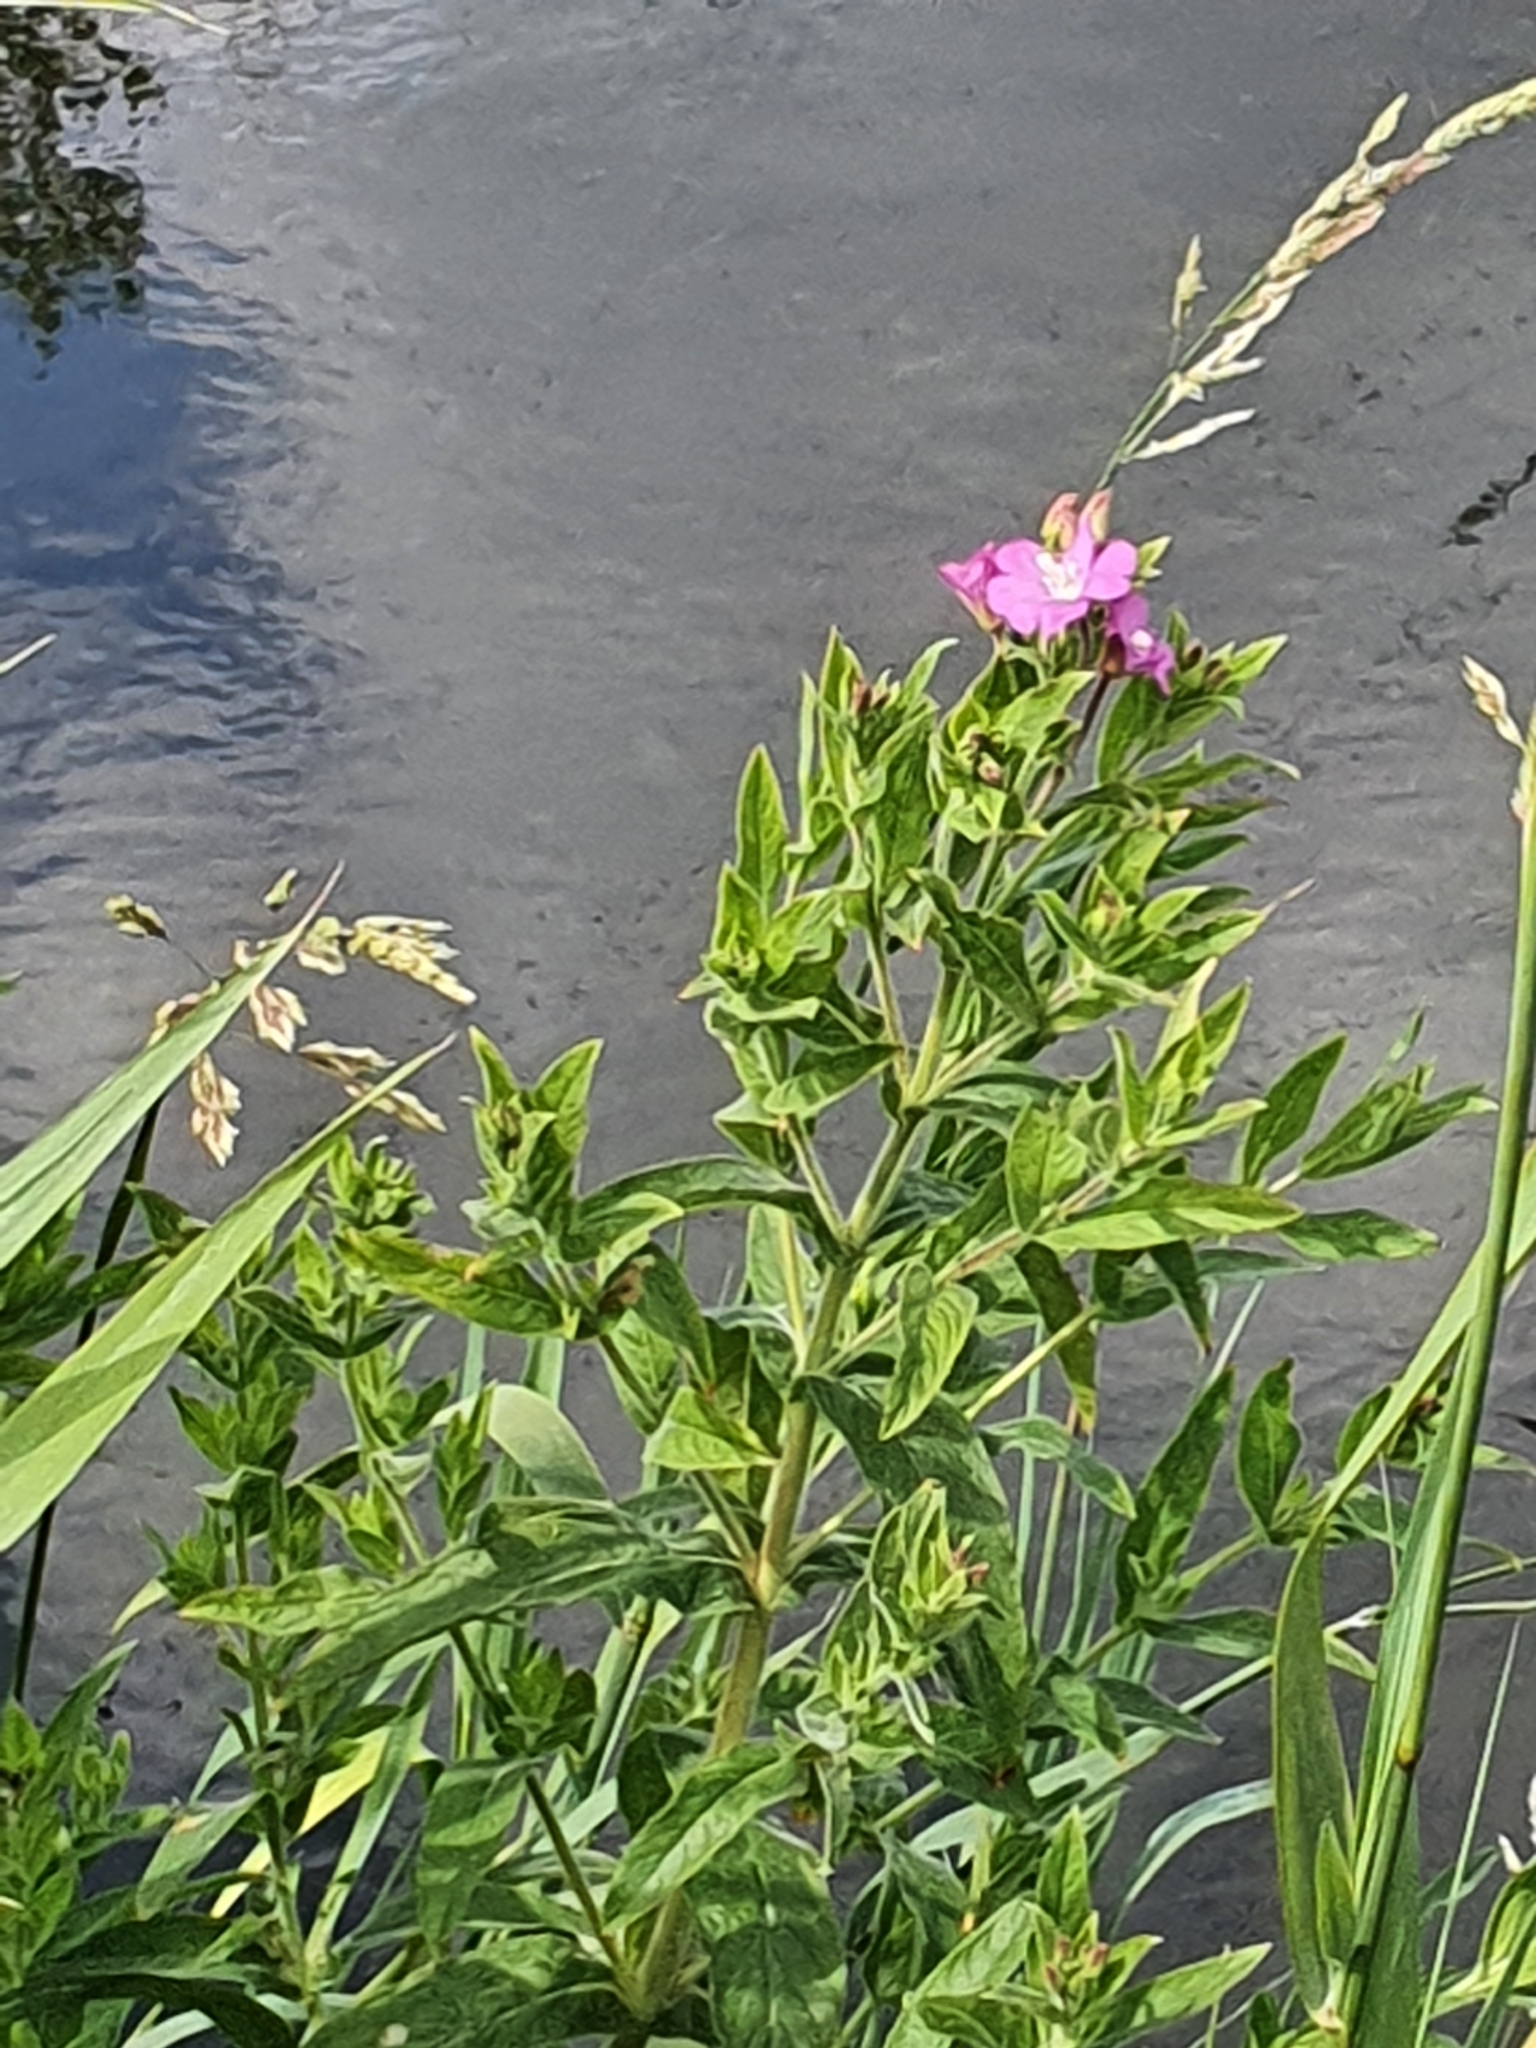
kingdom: Plantae
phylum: Tracheophyta
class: Magnoliopsida
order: Myrtales
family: Onagraceae
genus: Epilobium
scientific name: Epilobium hirsutum
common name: Great willowherb
